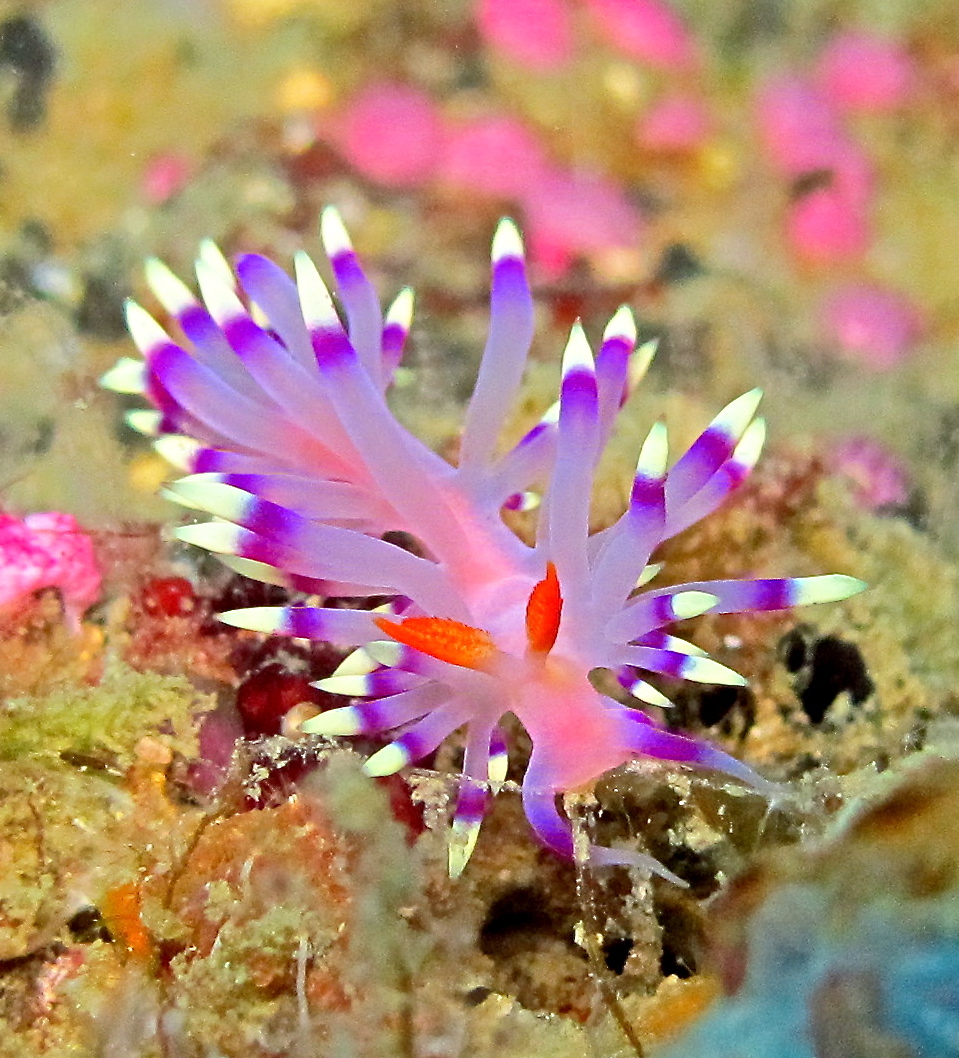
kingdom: Animalia
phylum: Mollusca
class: Gastropoda
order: Nudibranchia
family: Flabellinidae
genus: Coryphellina
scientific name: Coryphellina exoptata
